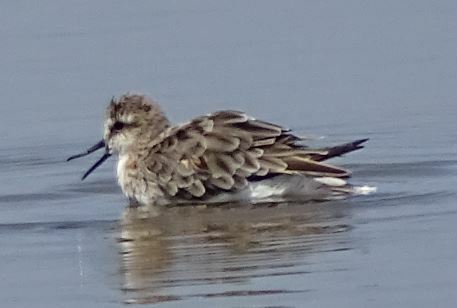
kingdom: Animalia
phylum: Chordata
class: Aves
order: Charadriiformes
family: Scolopacidae
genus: Calidris
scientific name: Calidris minuta
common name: Little stint
